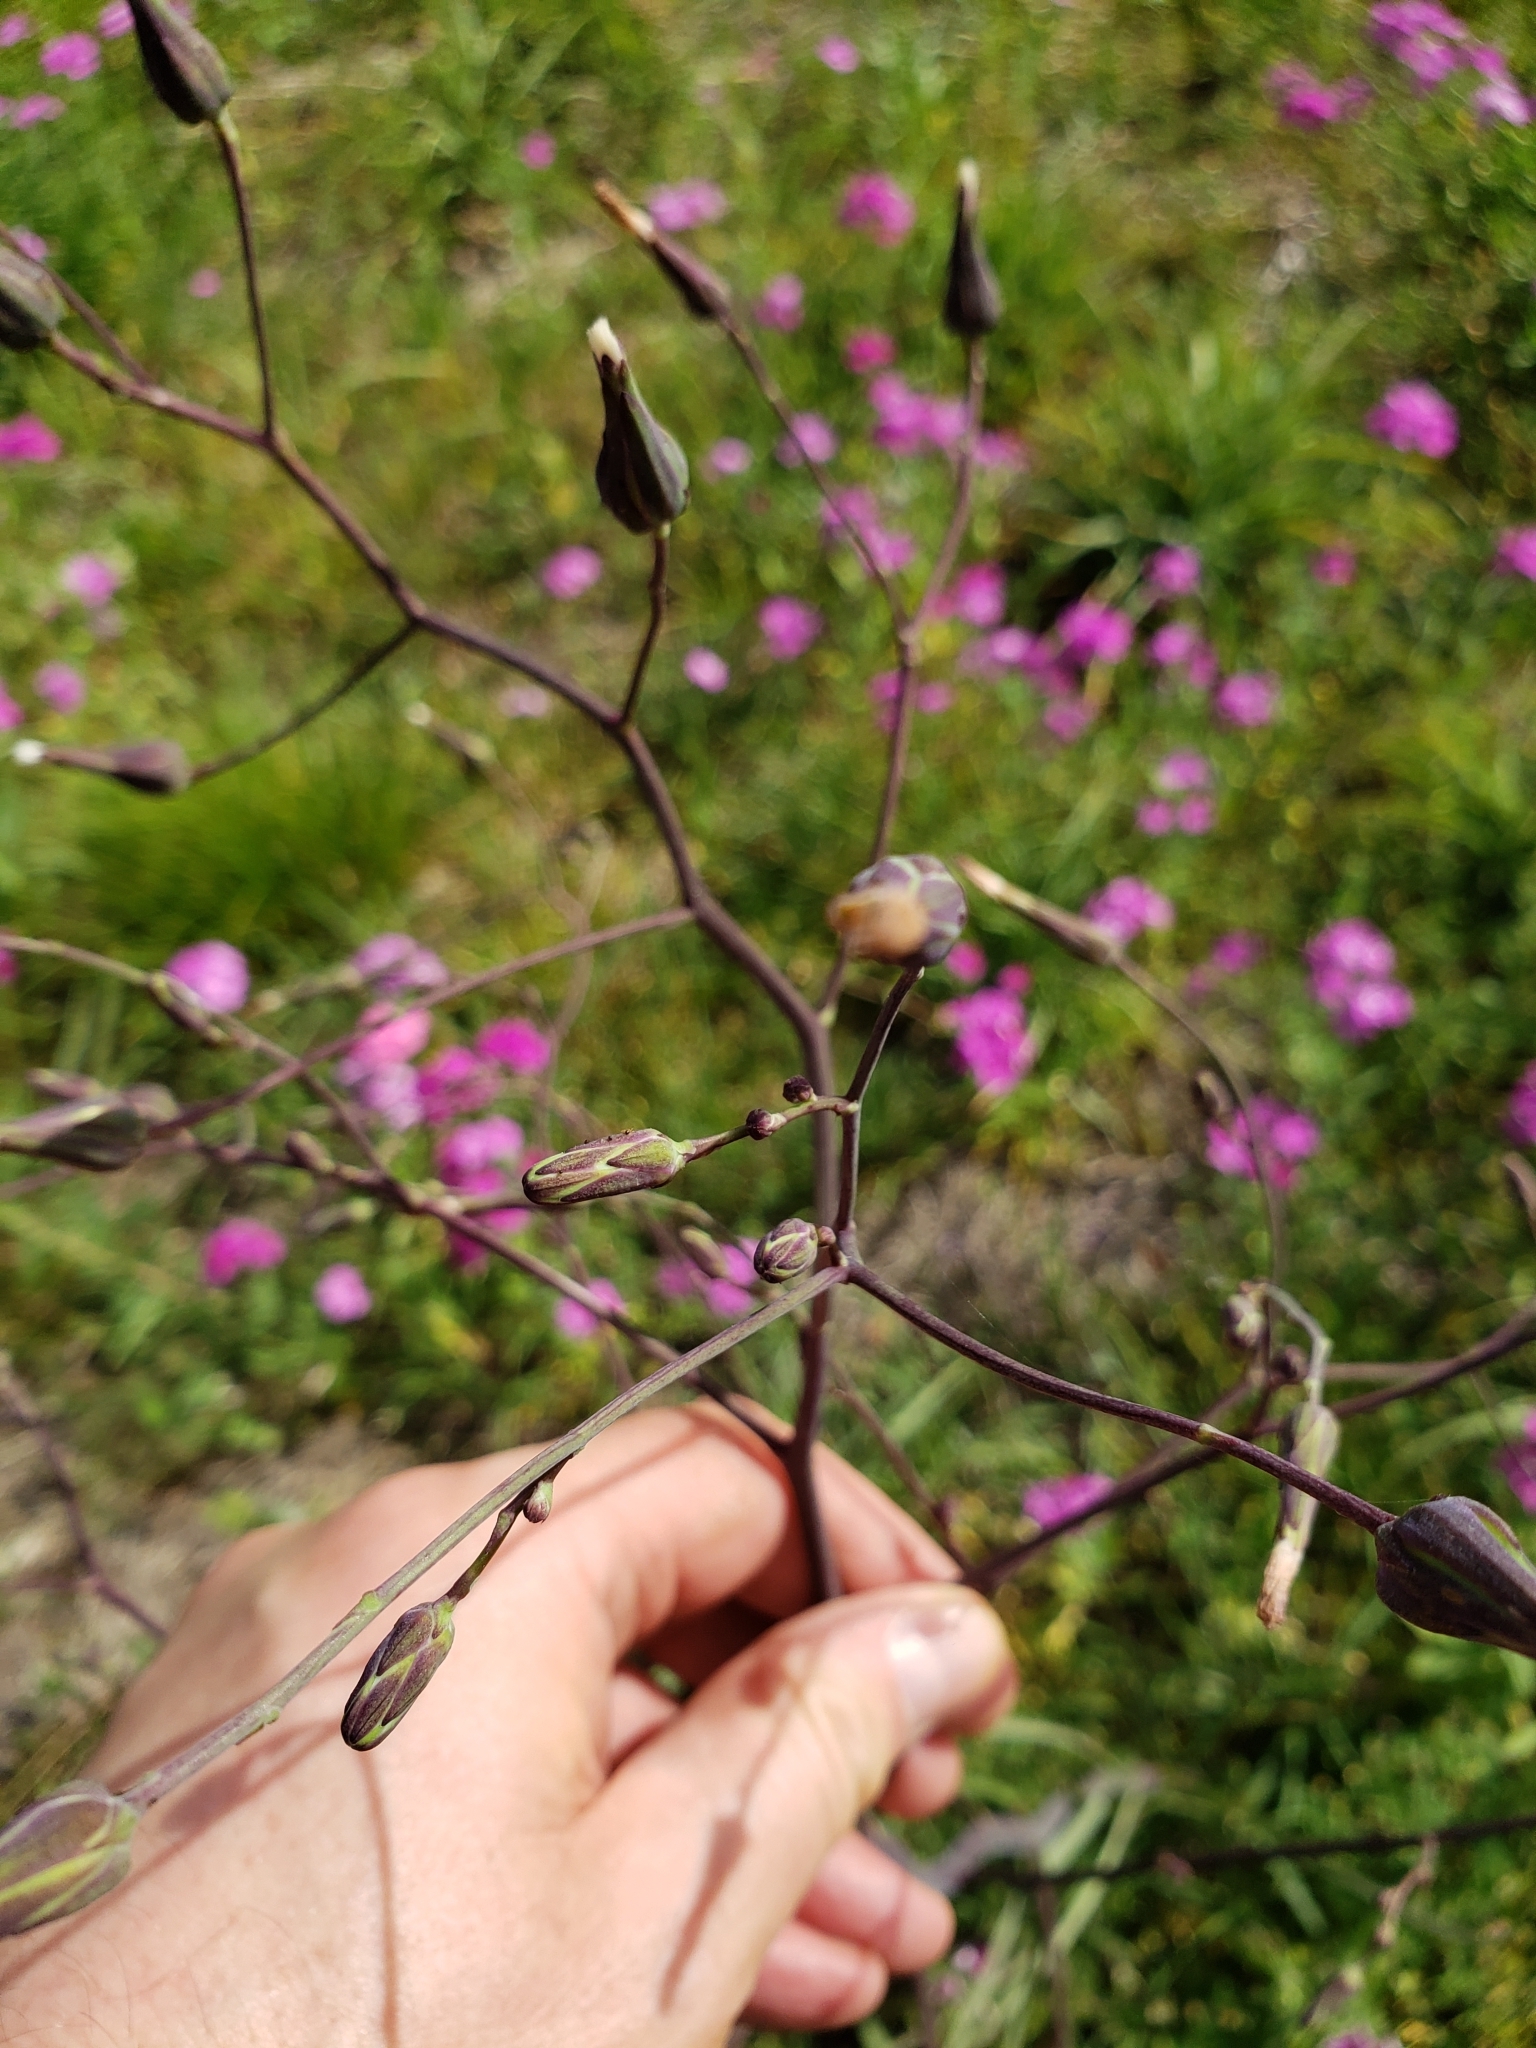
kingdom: Plantae
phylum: Tracheophyta
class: Magnoliopsida
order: Asterales
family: Asteraceae
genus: Lactuca
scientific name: Lactuca graminifolia
